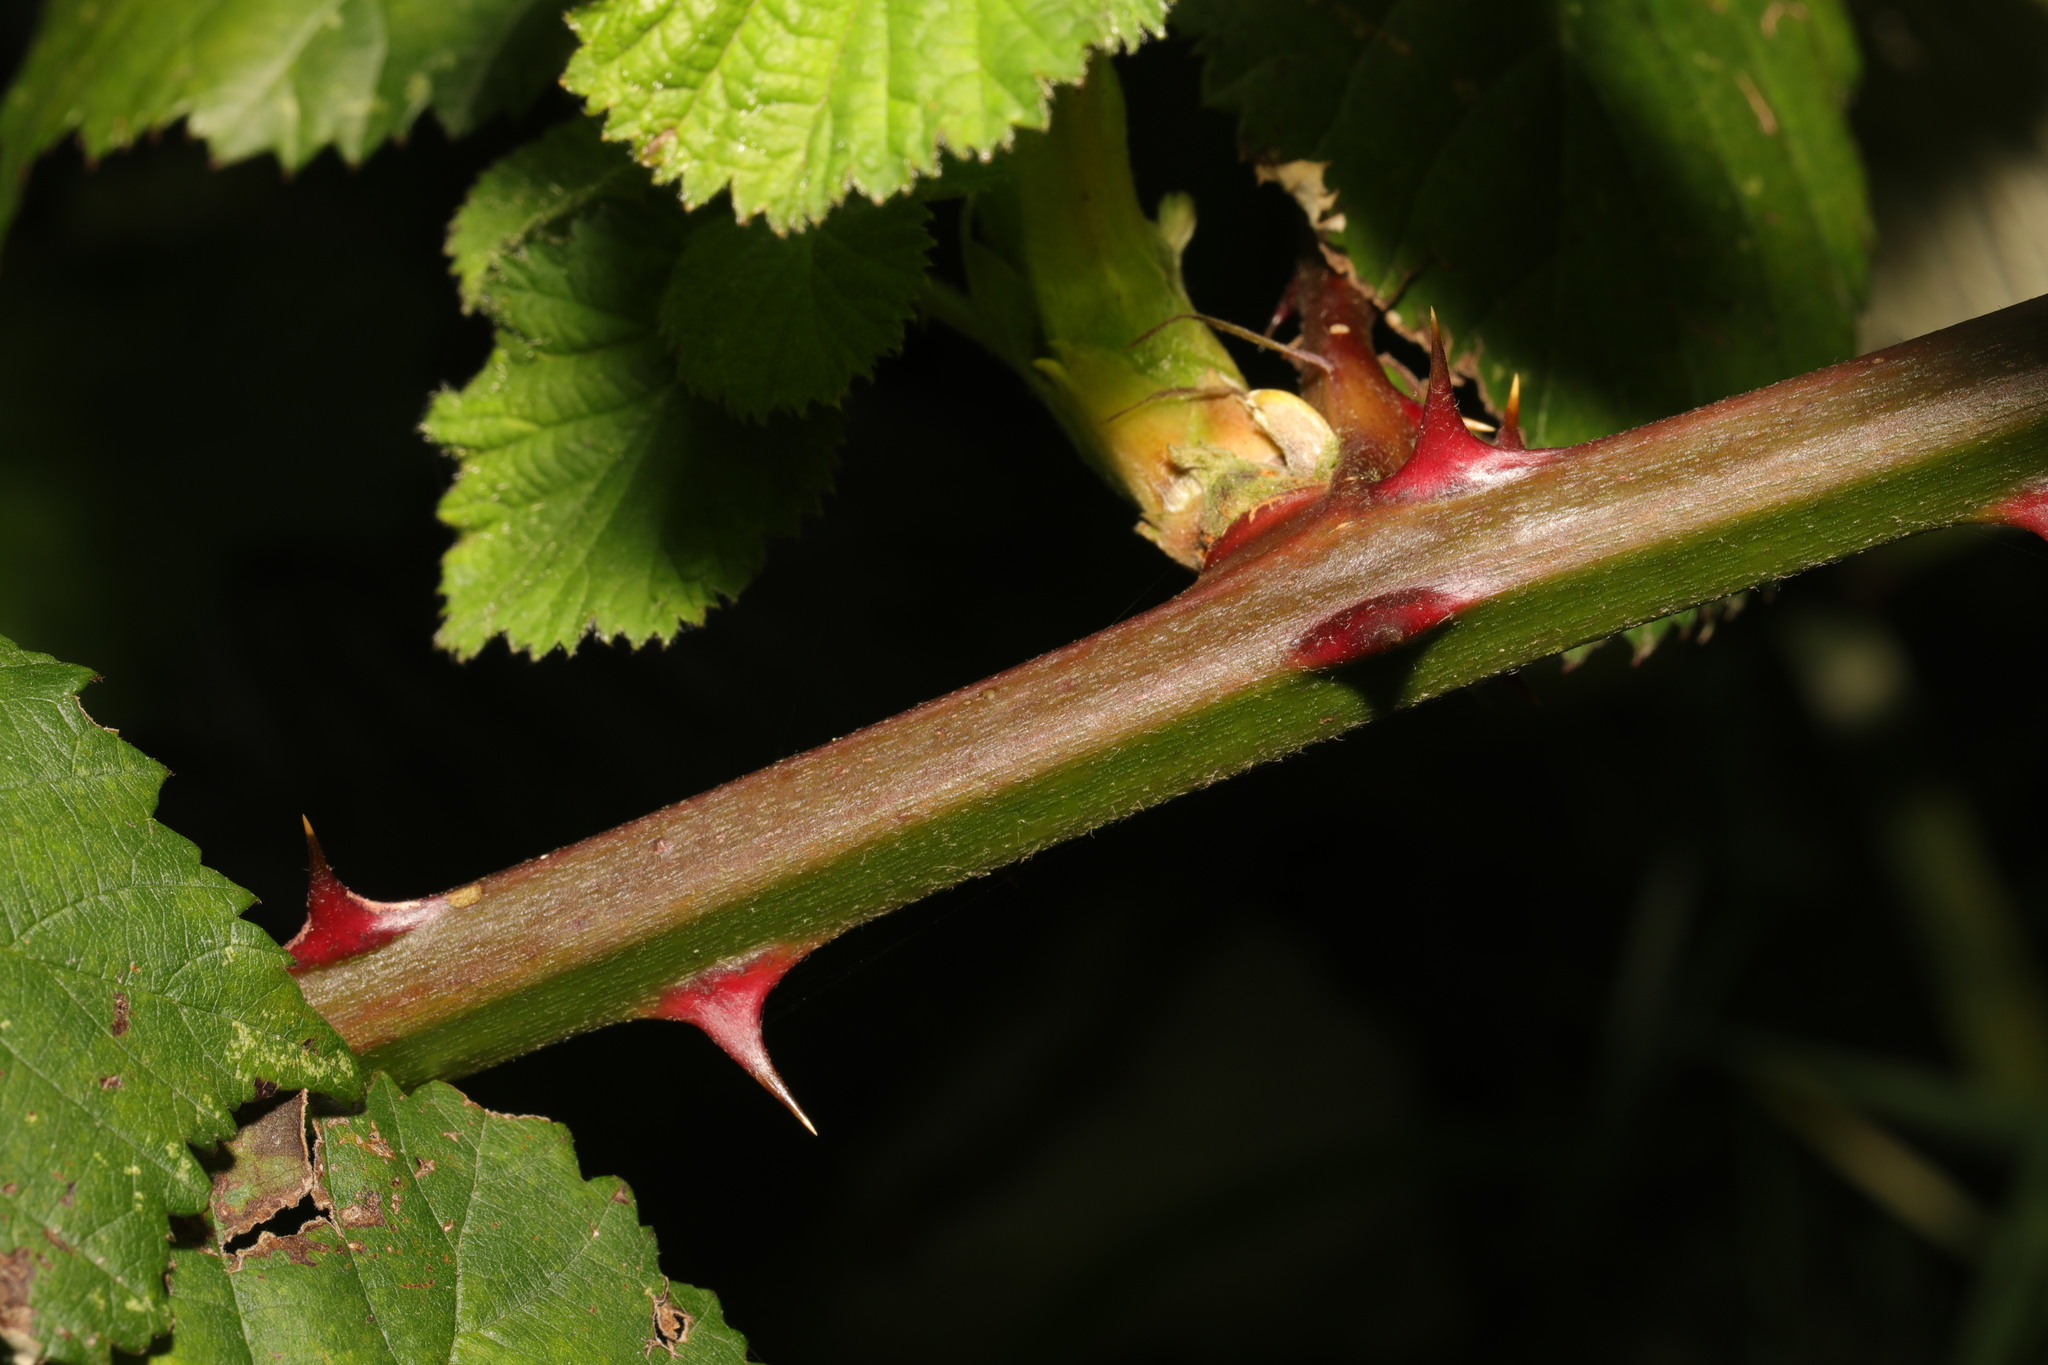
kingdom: Plantae
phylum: Tracheophyta
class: Magnoliopsida
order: Rosales
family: Rosaceae
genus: Rubus
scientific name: Rubus armeniacus
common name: Himalayan blackberry
